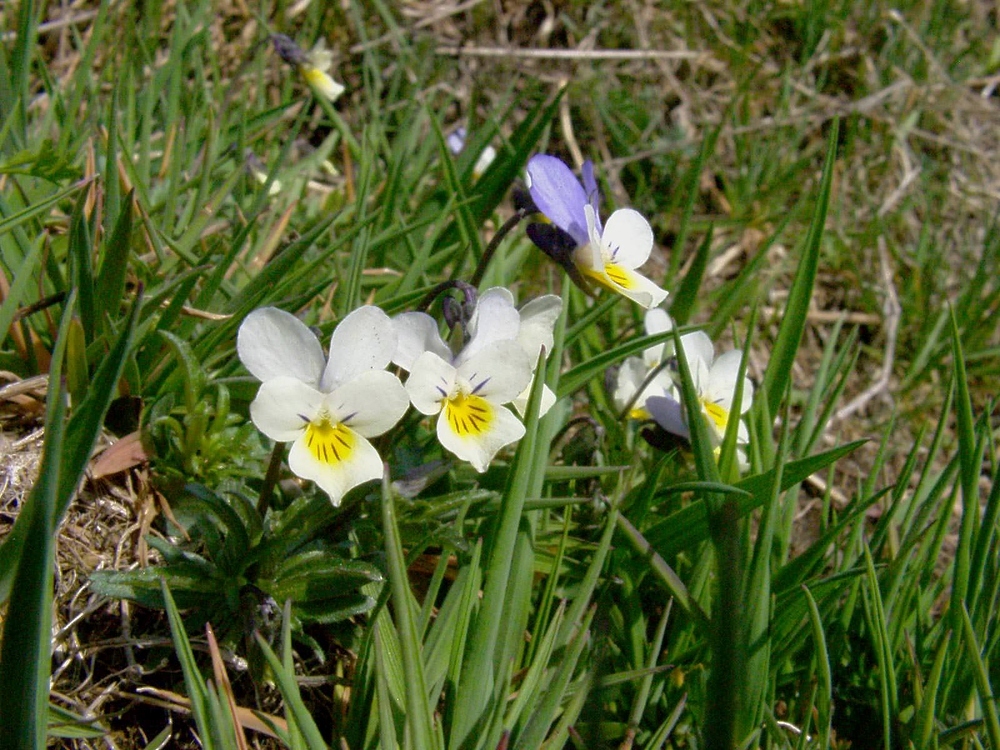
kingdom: Plantae
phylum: Tracheophyta
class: Magnoliopsida
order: Malpighiales
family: Violaceae
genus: Viola
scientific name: Viola tricolor
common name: Pansy
